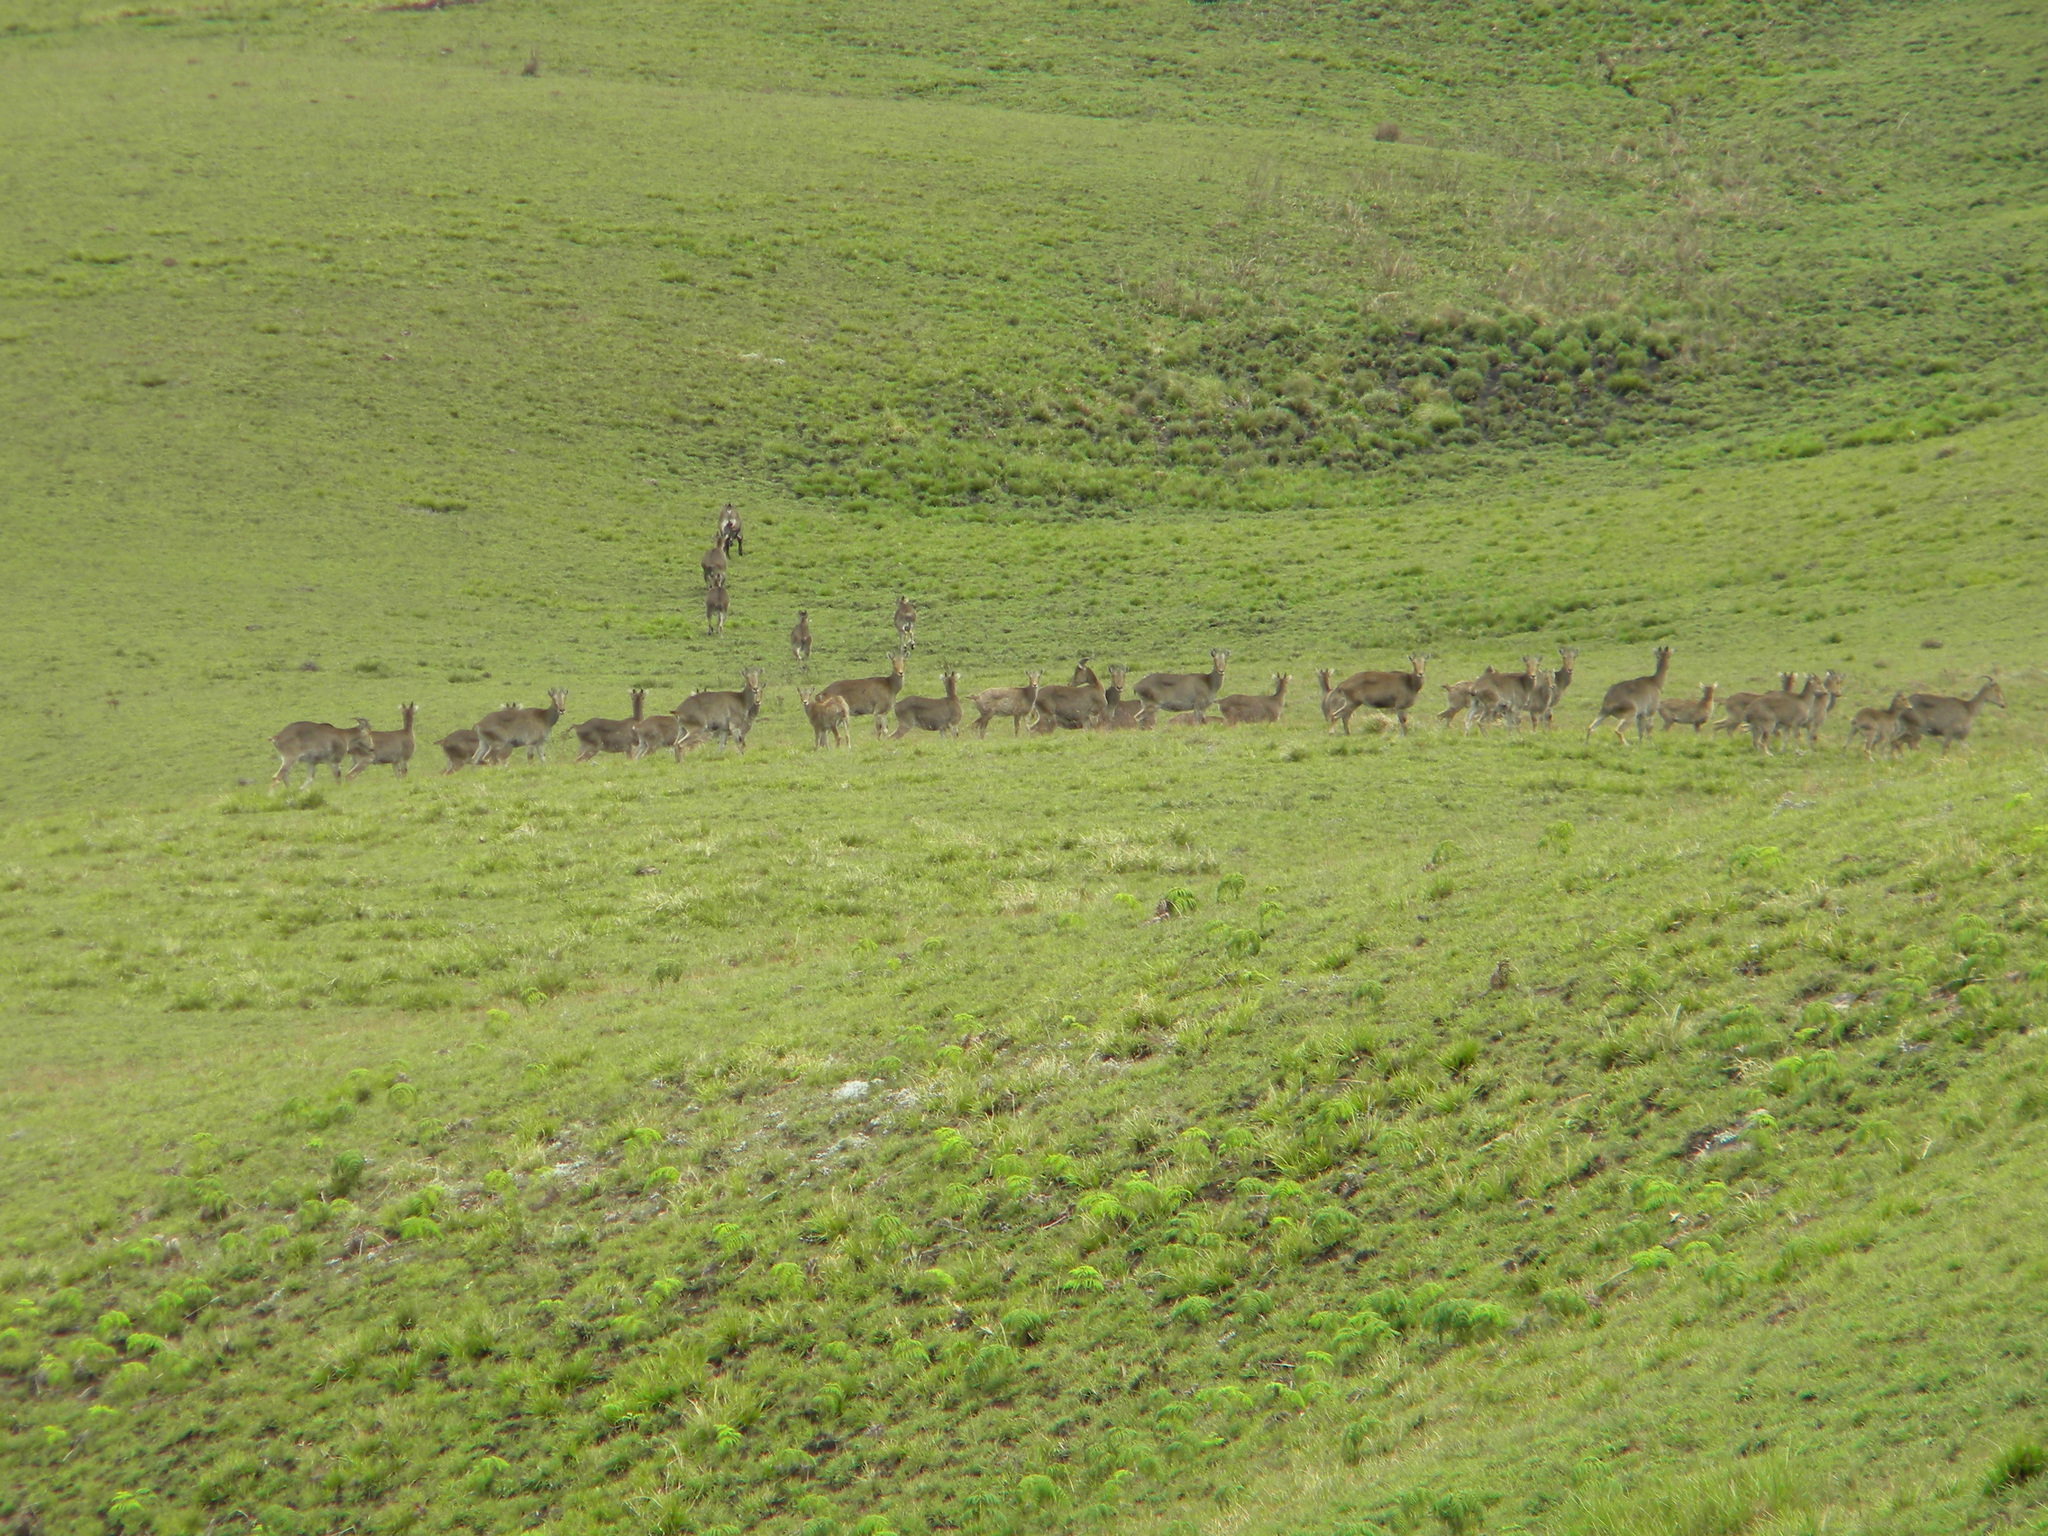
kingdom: Animalia
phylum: Chordata
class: Mammalia
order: Artiodactyla
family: Bovidae
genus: Hemitragus
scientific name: Hemitragus hylocrius
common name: Nilgiri tahr
